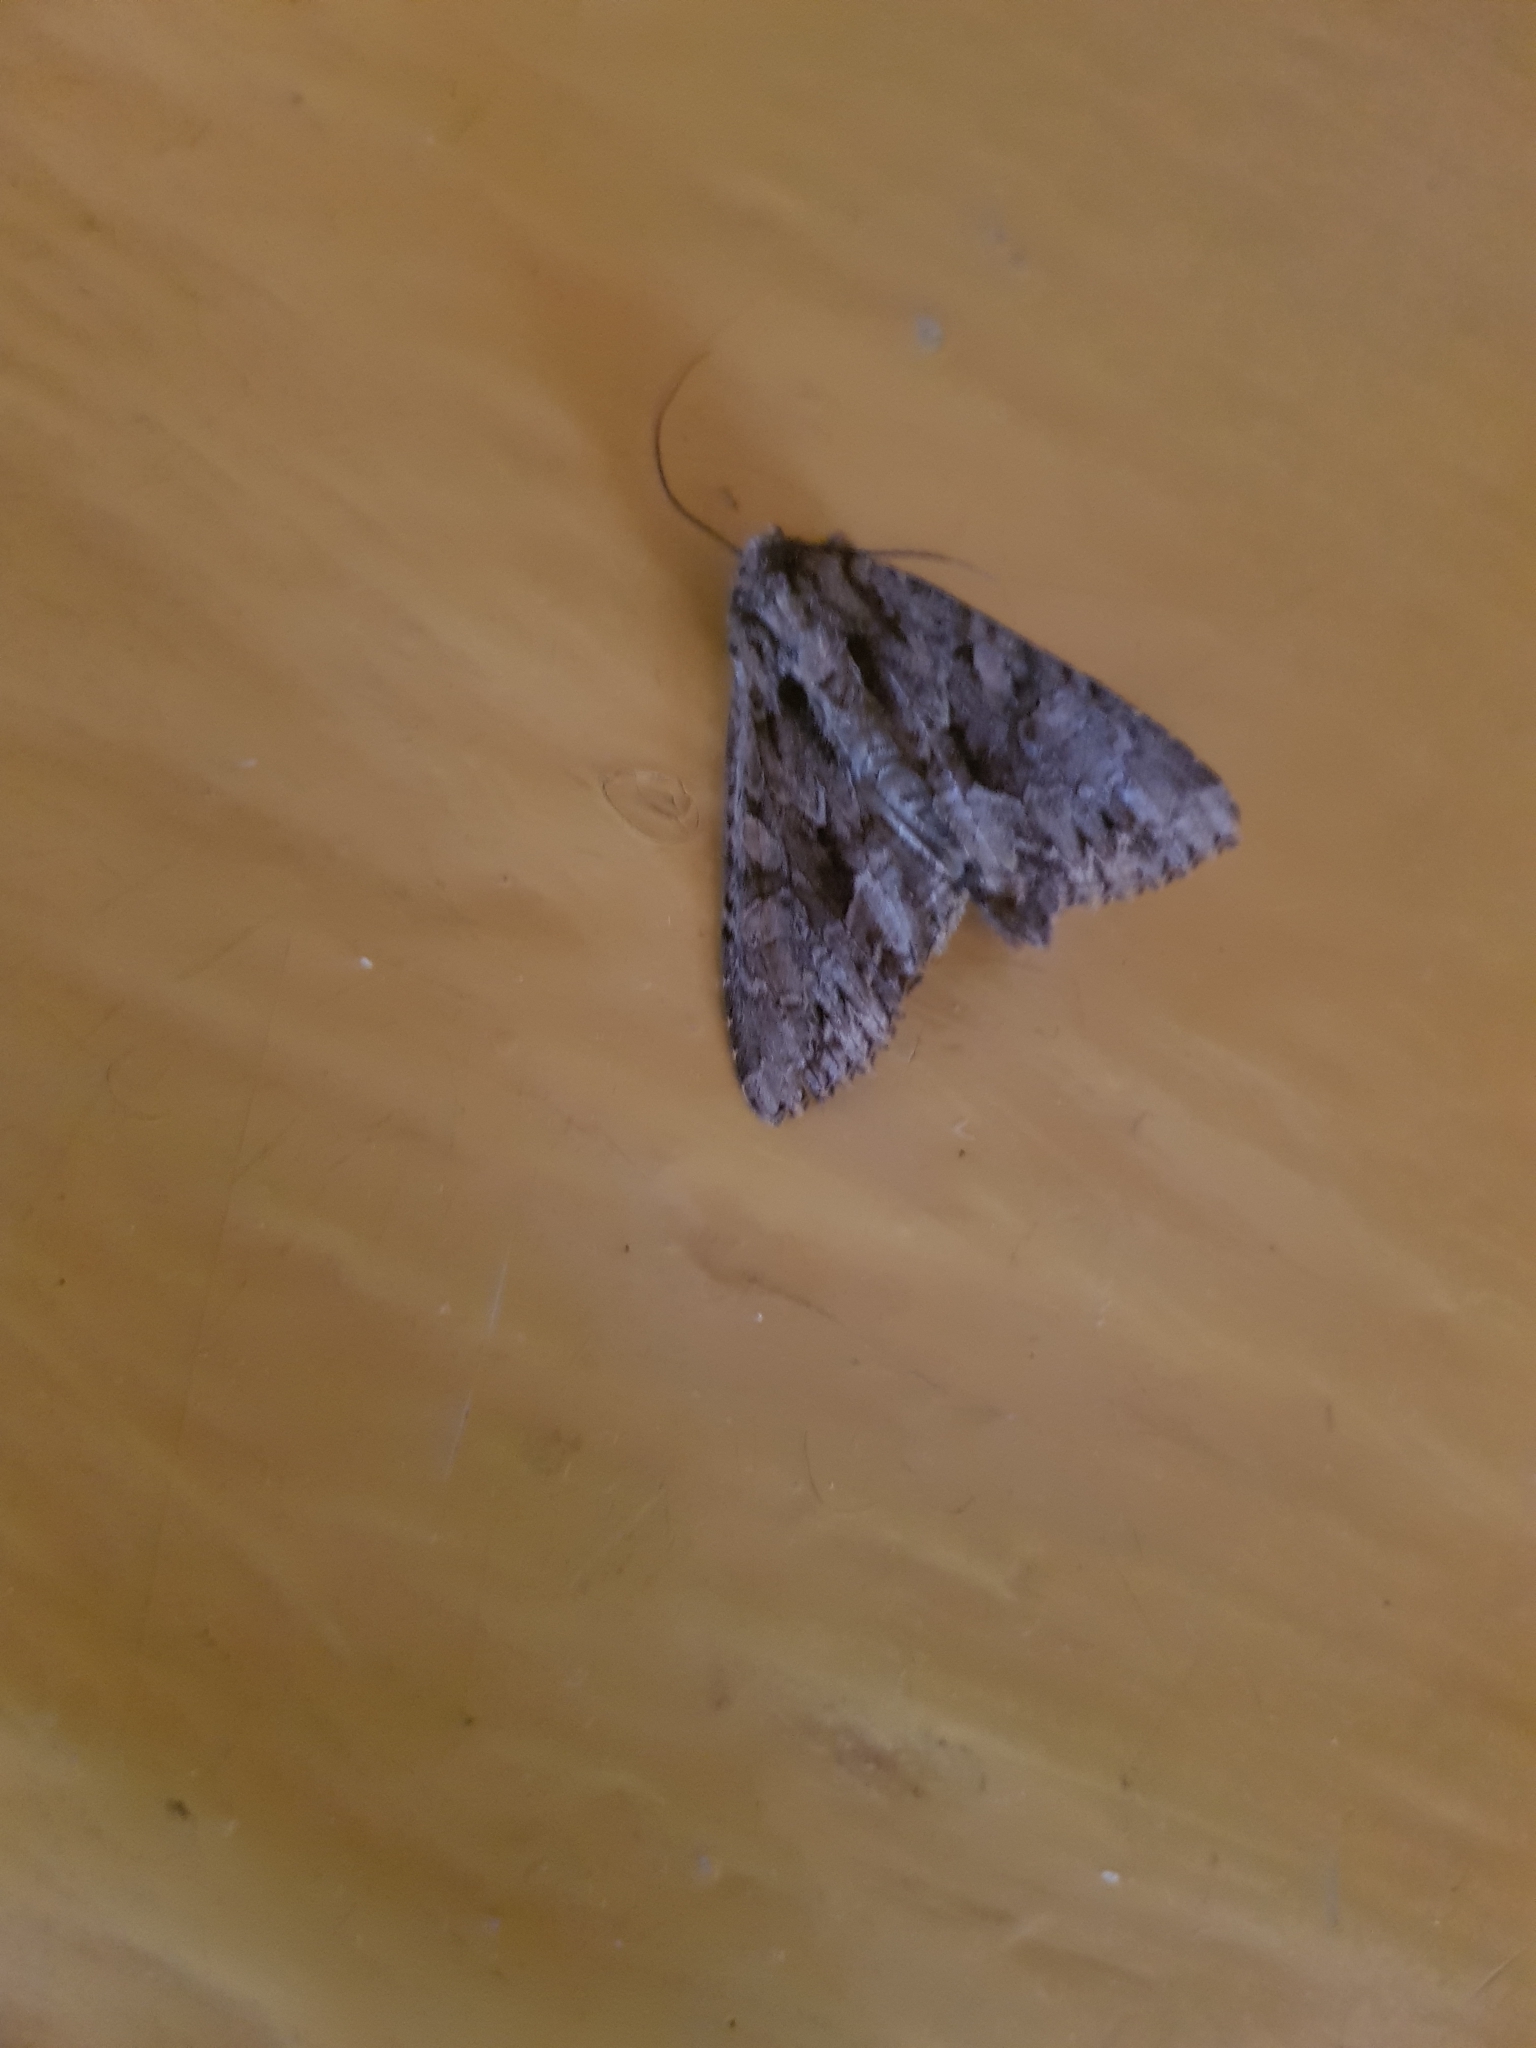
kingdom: Animalia
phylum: Arthropoda
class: Insecta
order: Lepidoptera
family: Noctuidae
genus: Apamea
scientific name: Apamea monoglypha
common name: Dark arches
